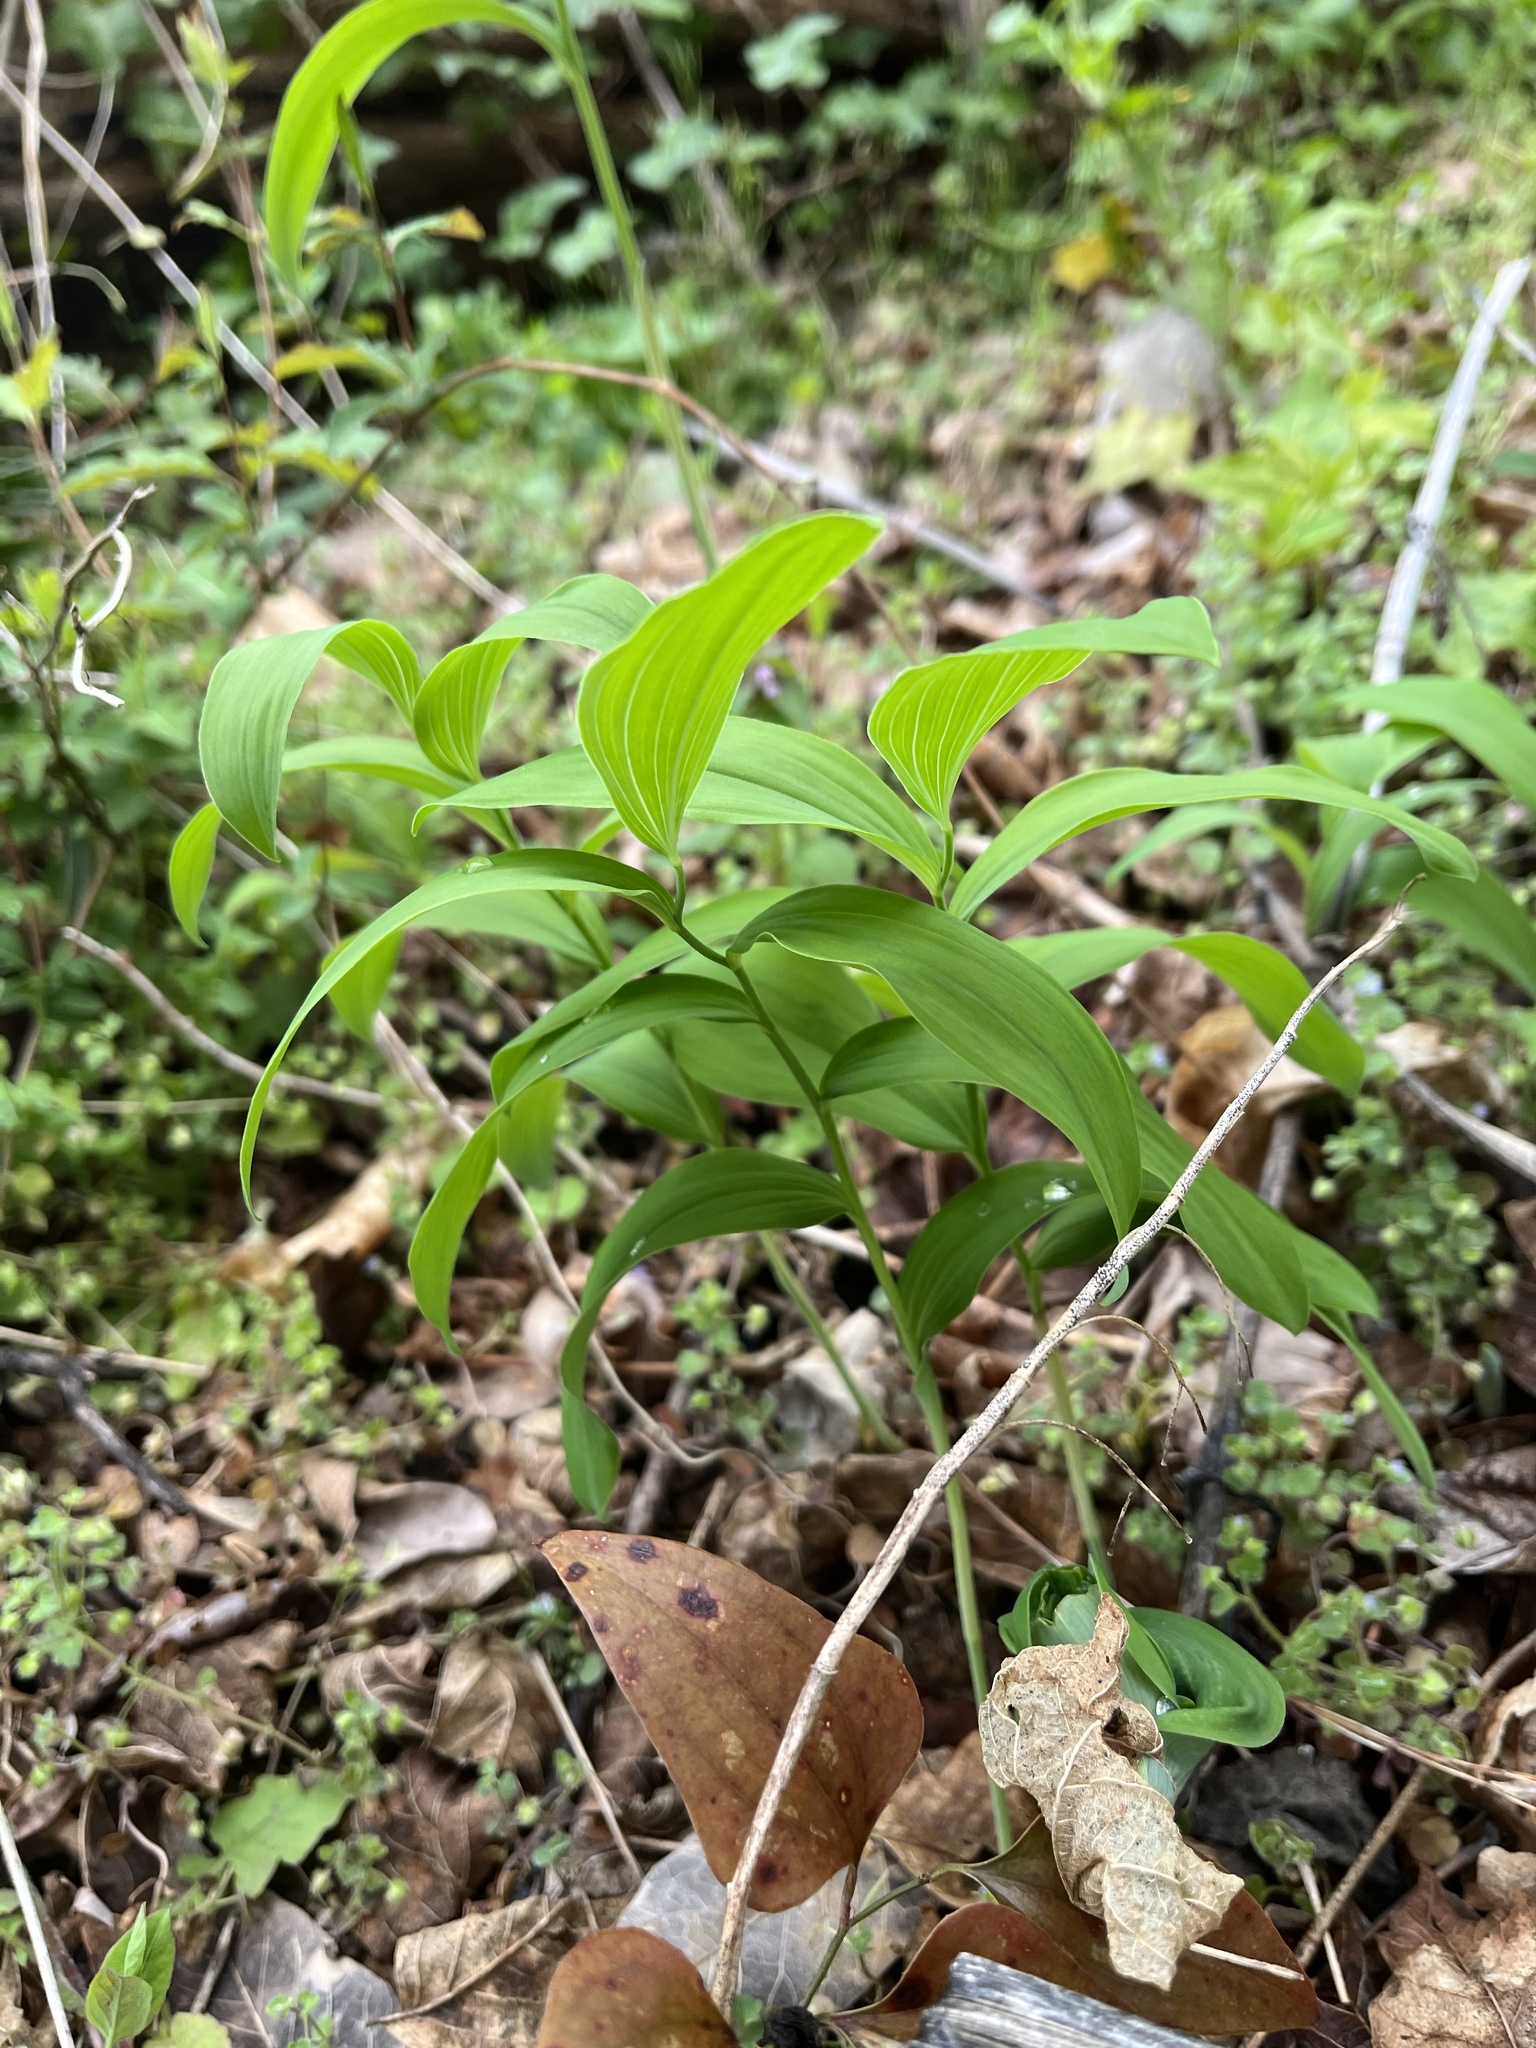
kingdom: Plantae
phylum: Tracheophyta
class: Liliopsida
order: Asparagales
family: Asparagaceae
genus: Polygonatum
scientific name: Polygonatum biflorum
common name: American solomon's-seal
